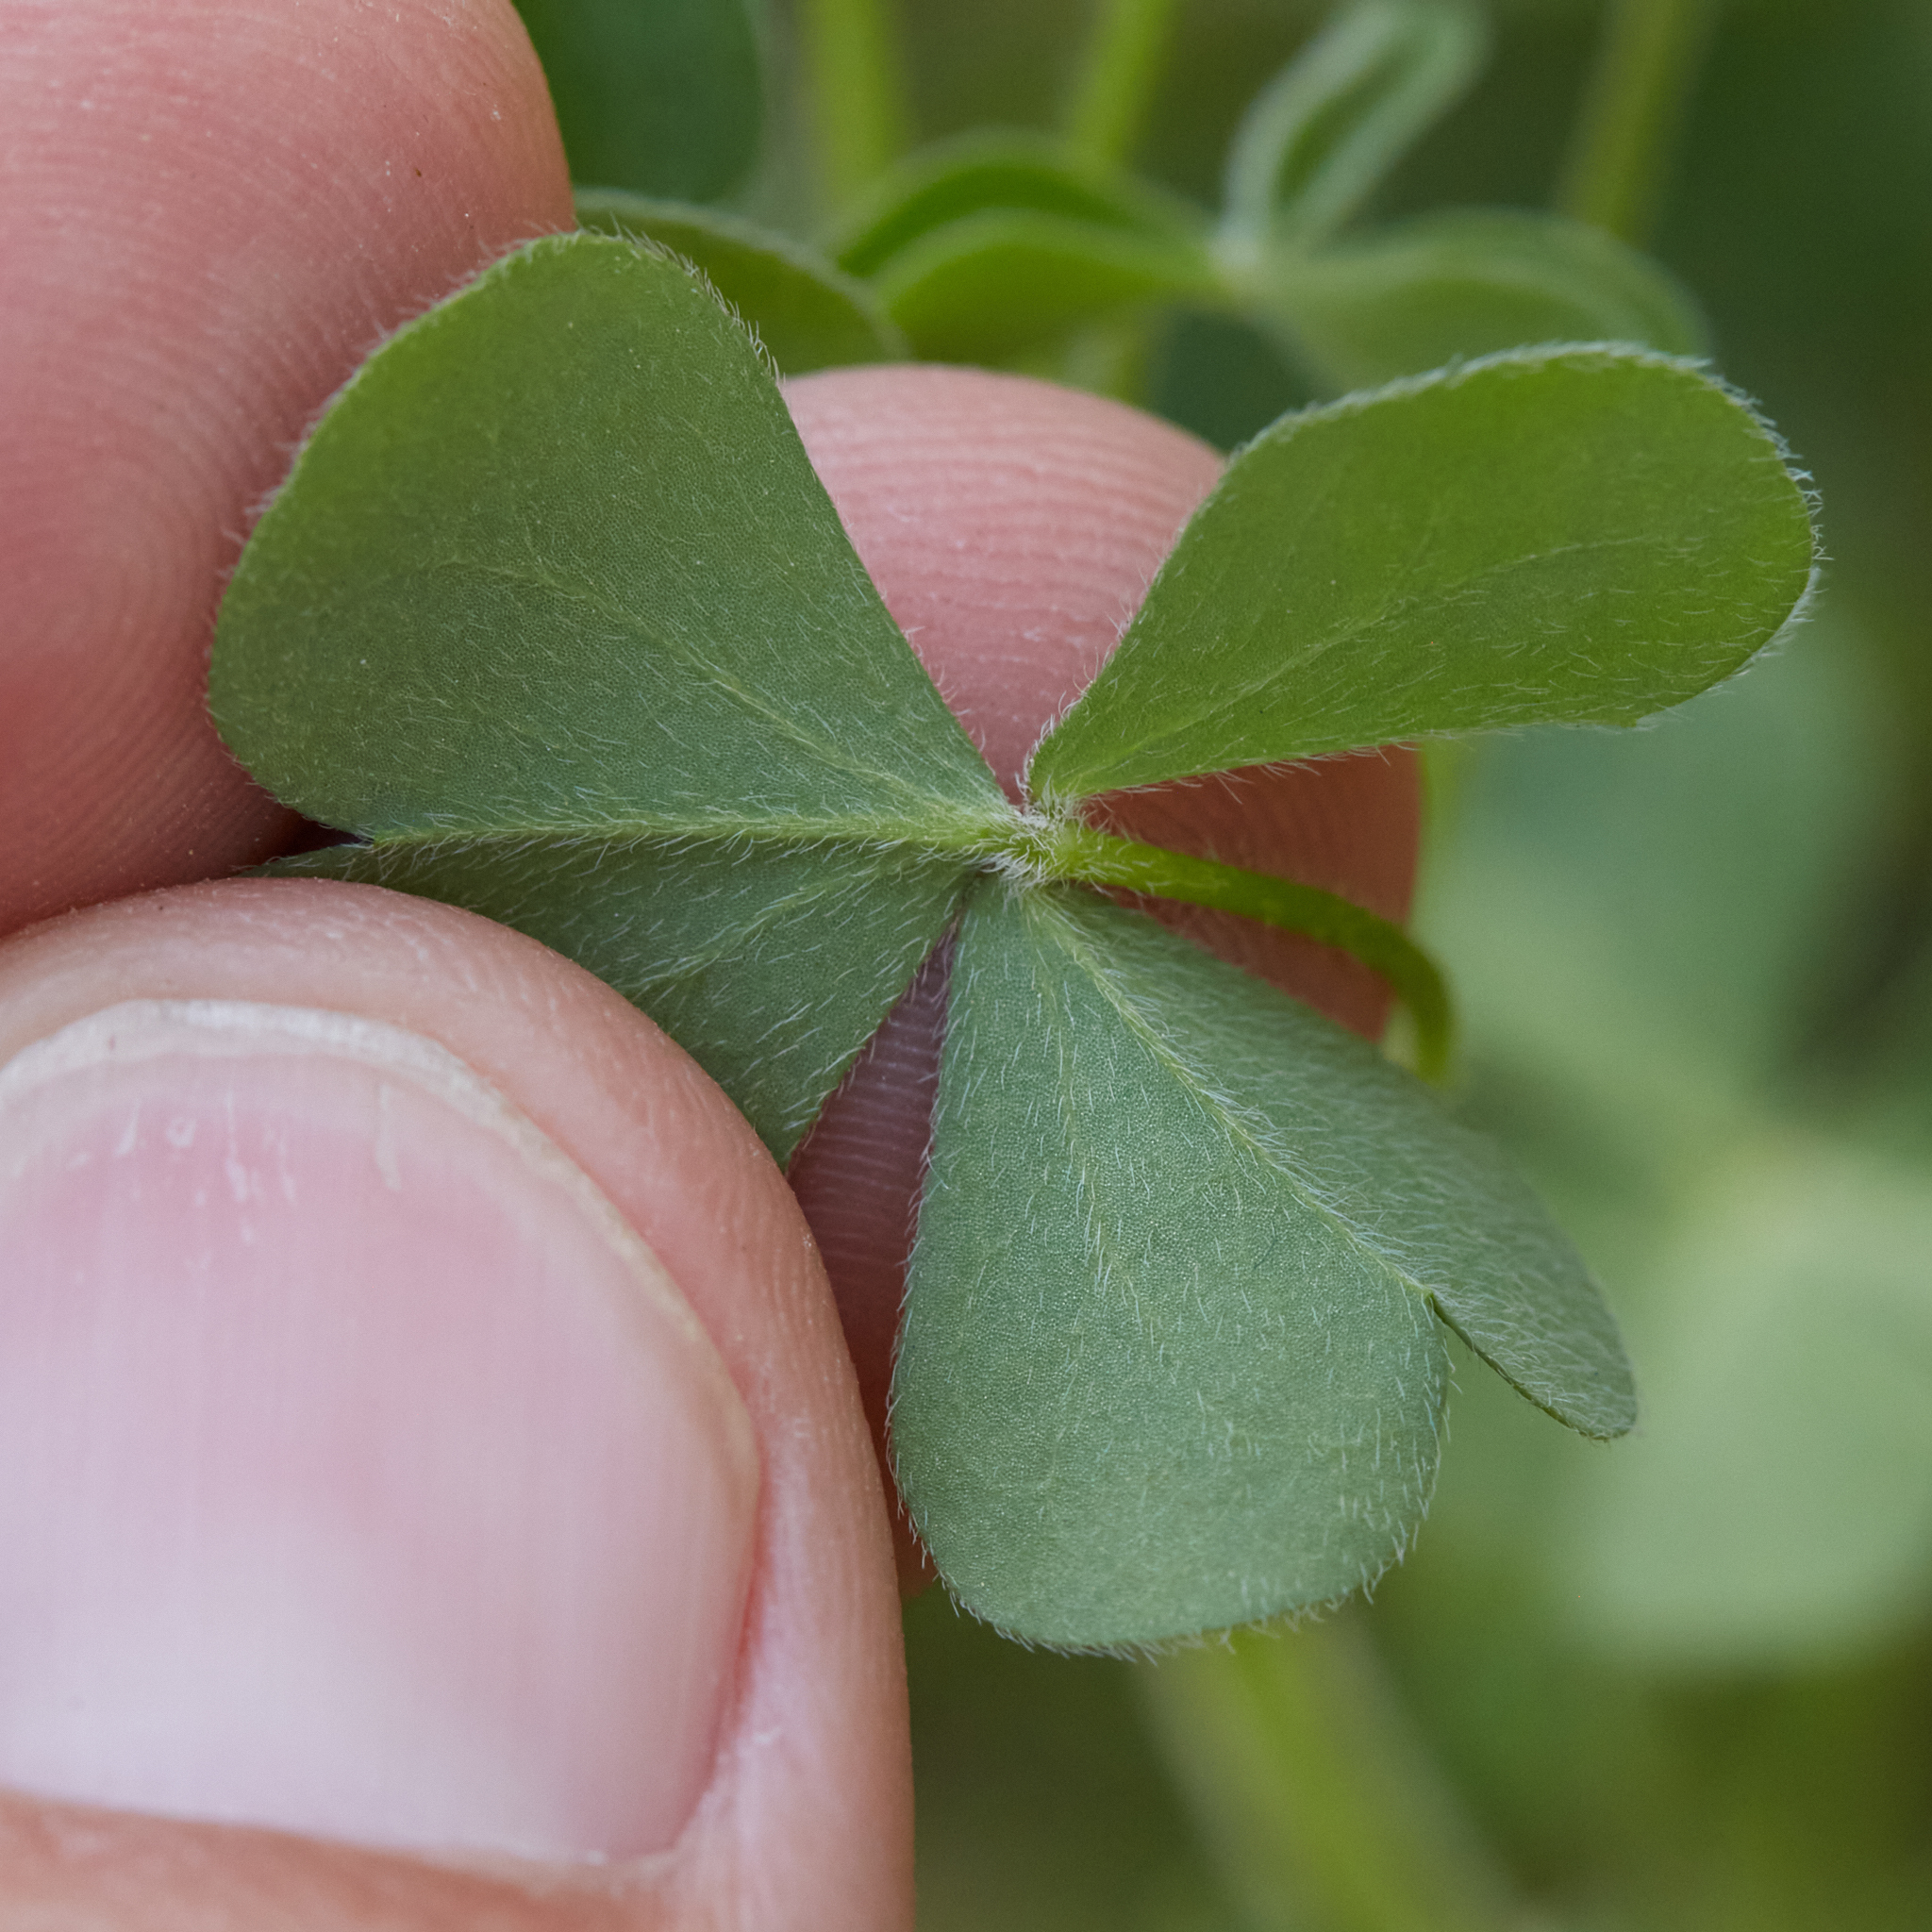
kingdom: Plantae
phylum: Tracheophyta
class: Magnoliopsida
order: Oxalidales
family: Oxalidaceae
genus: Oxalis
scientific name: Oxalis pilosa
